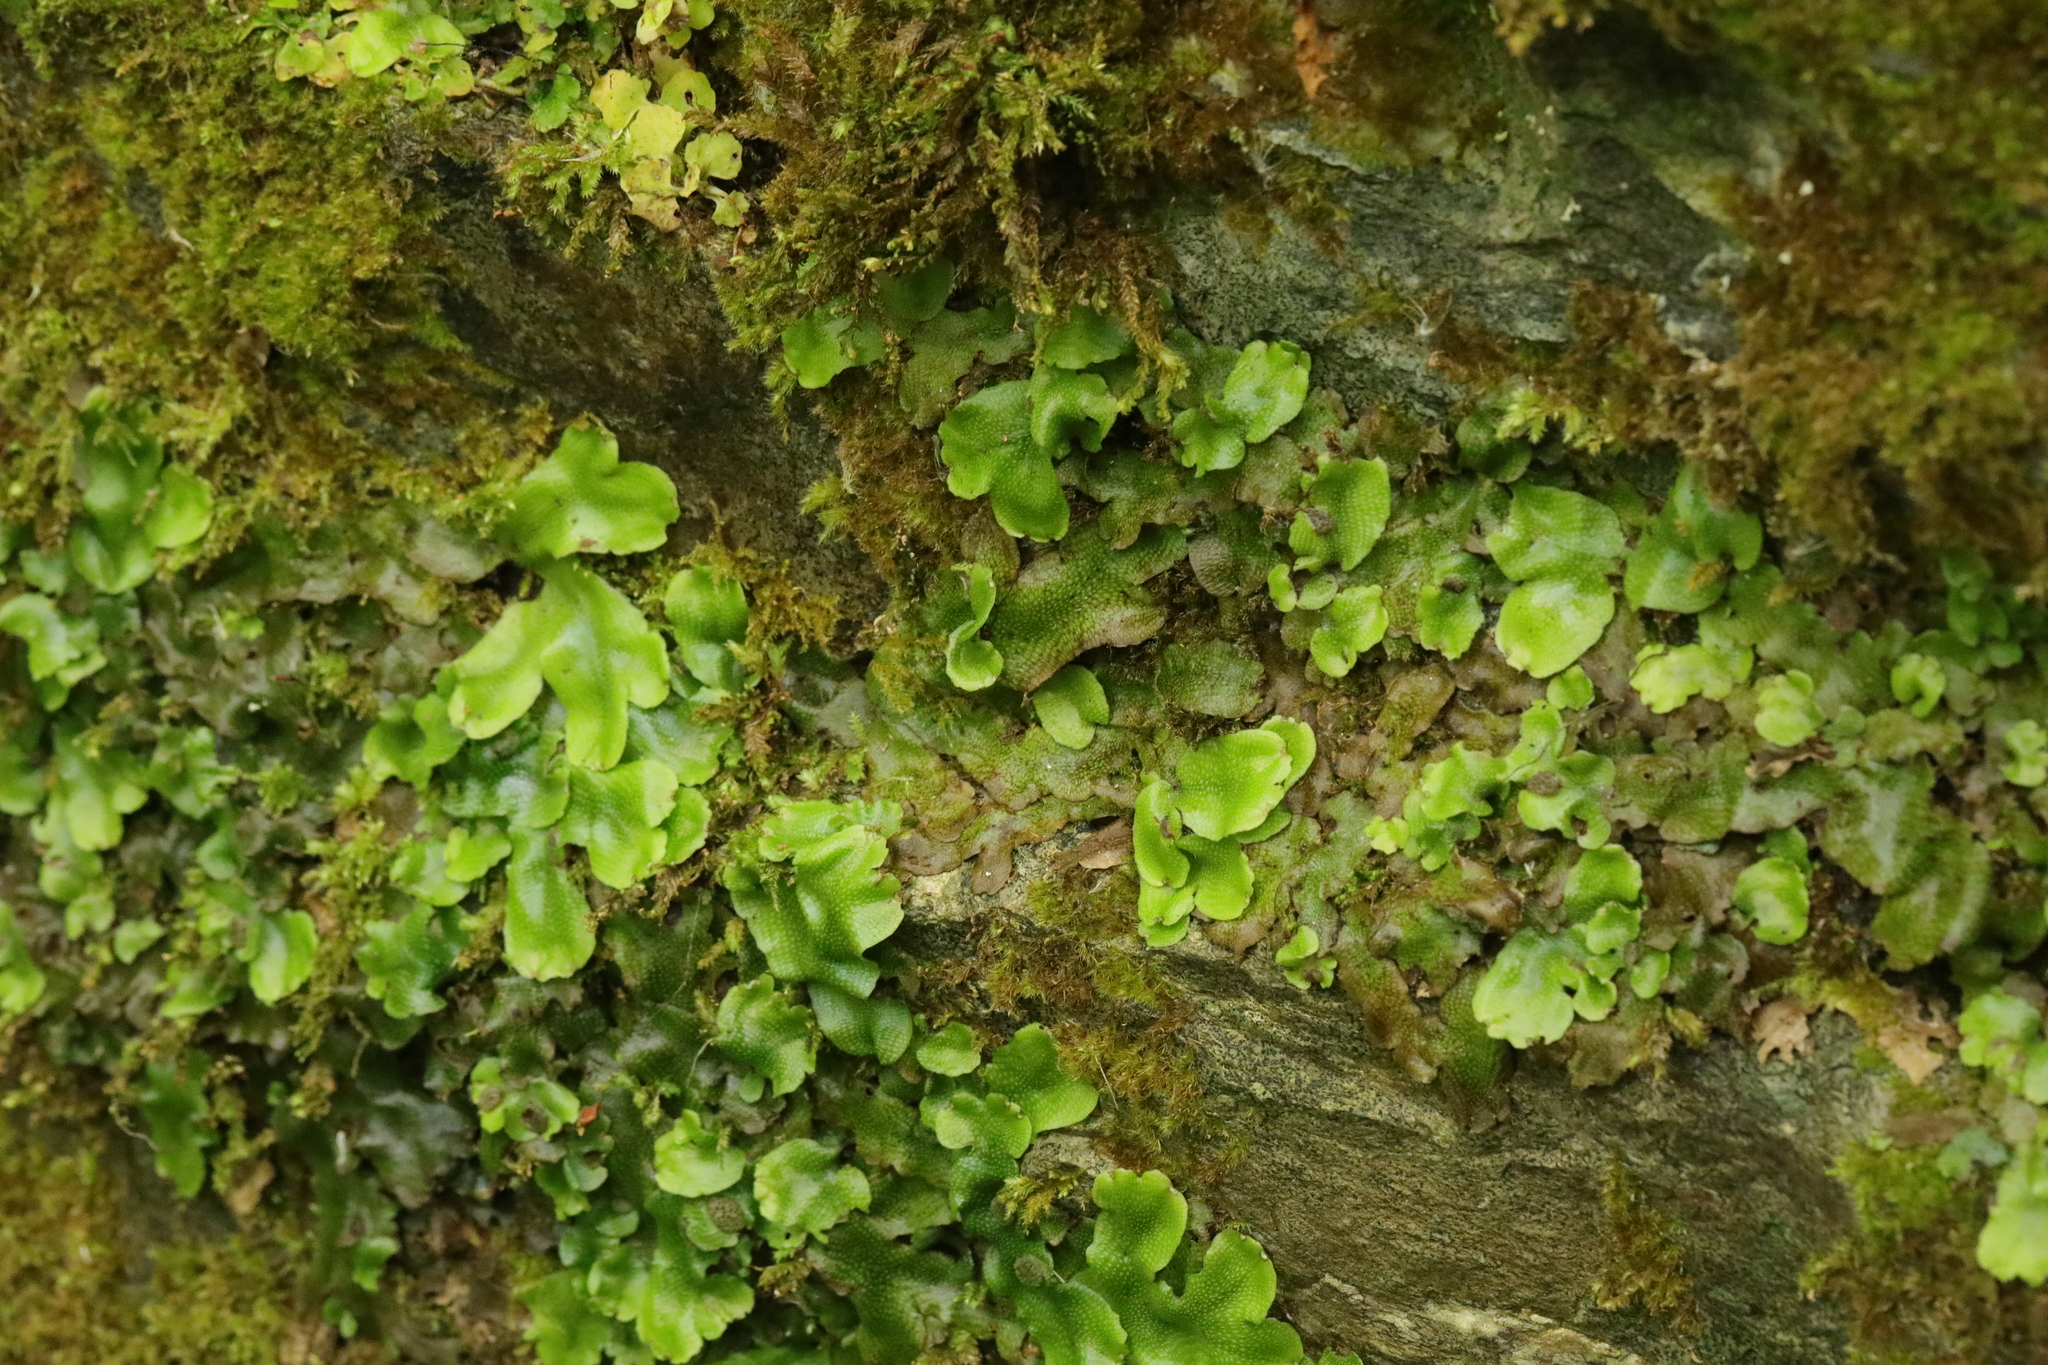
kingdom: Plantae
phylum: Marchantiophyta
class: Marchantiopsida
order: Marchantiales
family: Conocephalaceae
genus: Conocephalum
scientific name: Conocephalum conicum
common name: Great scented liverwort
